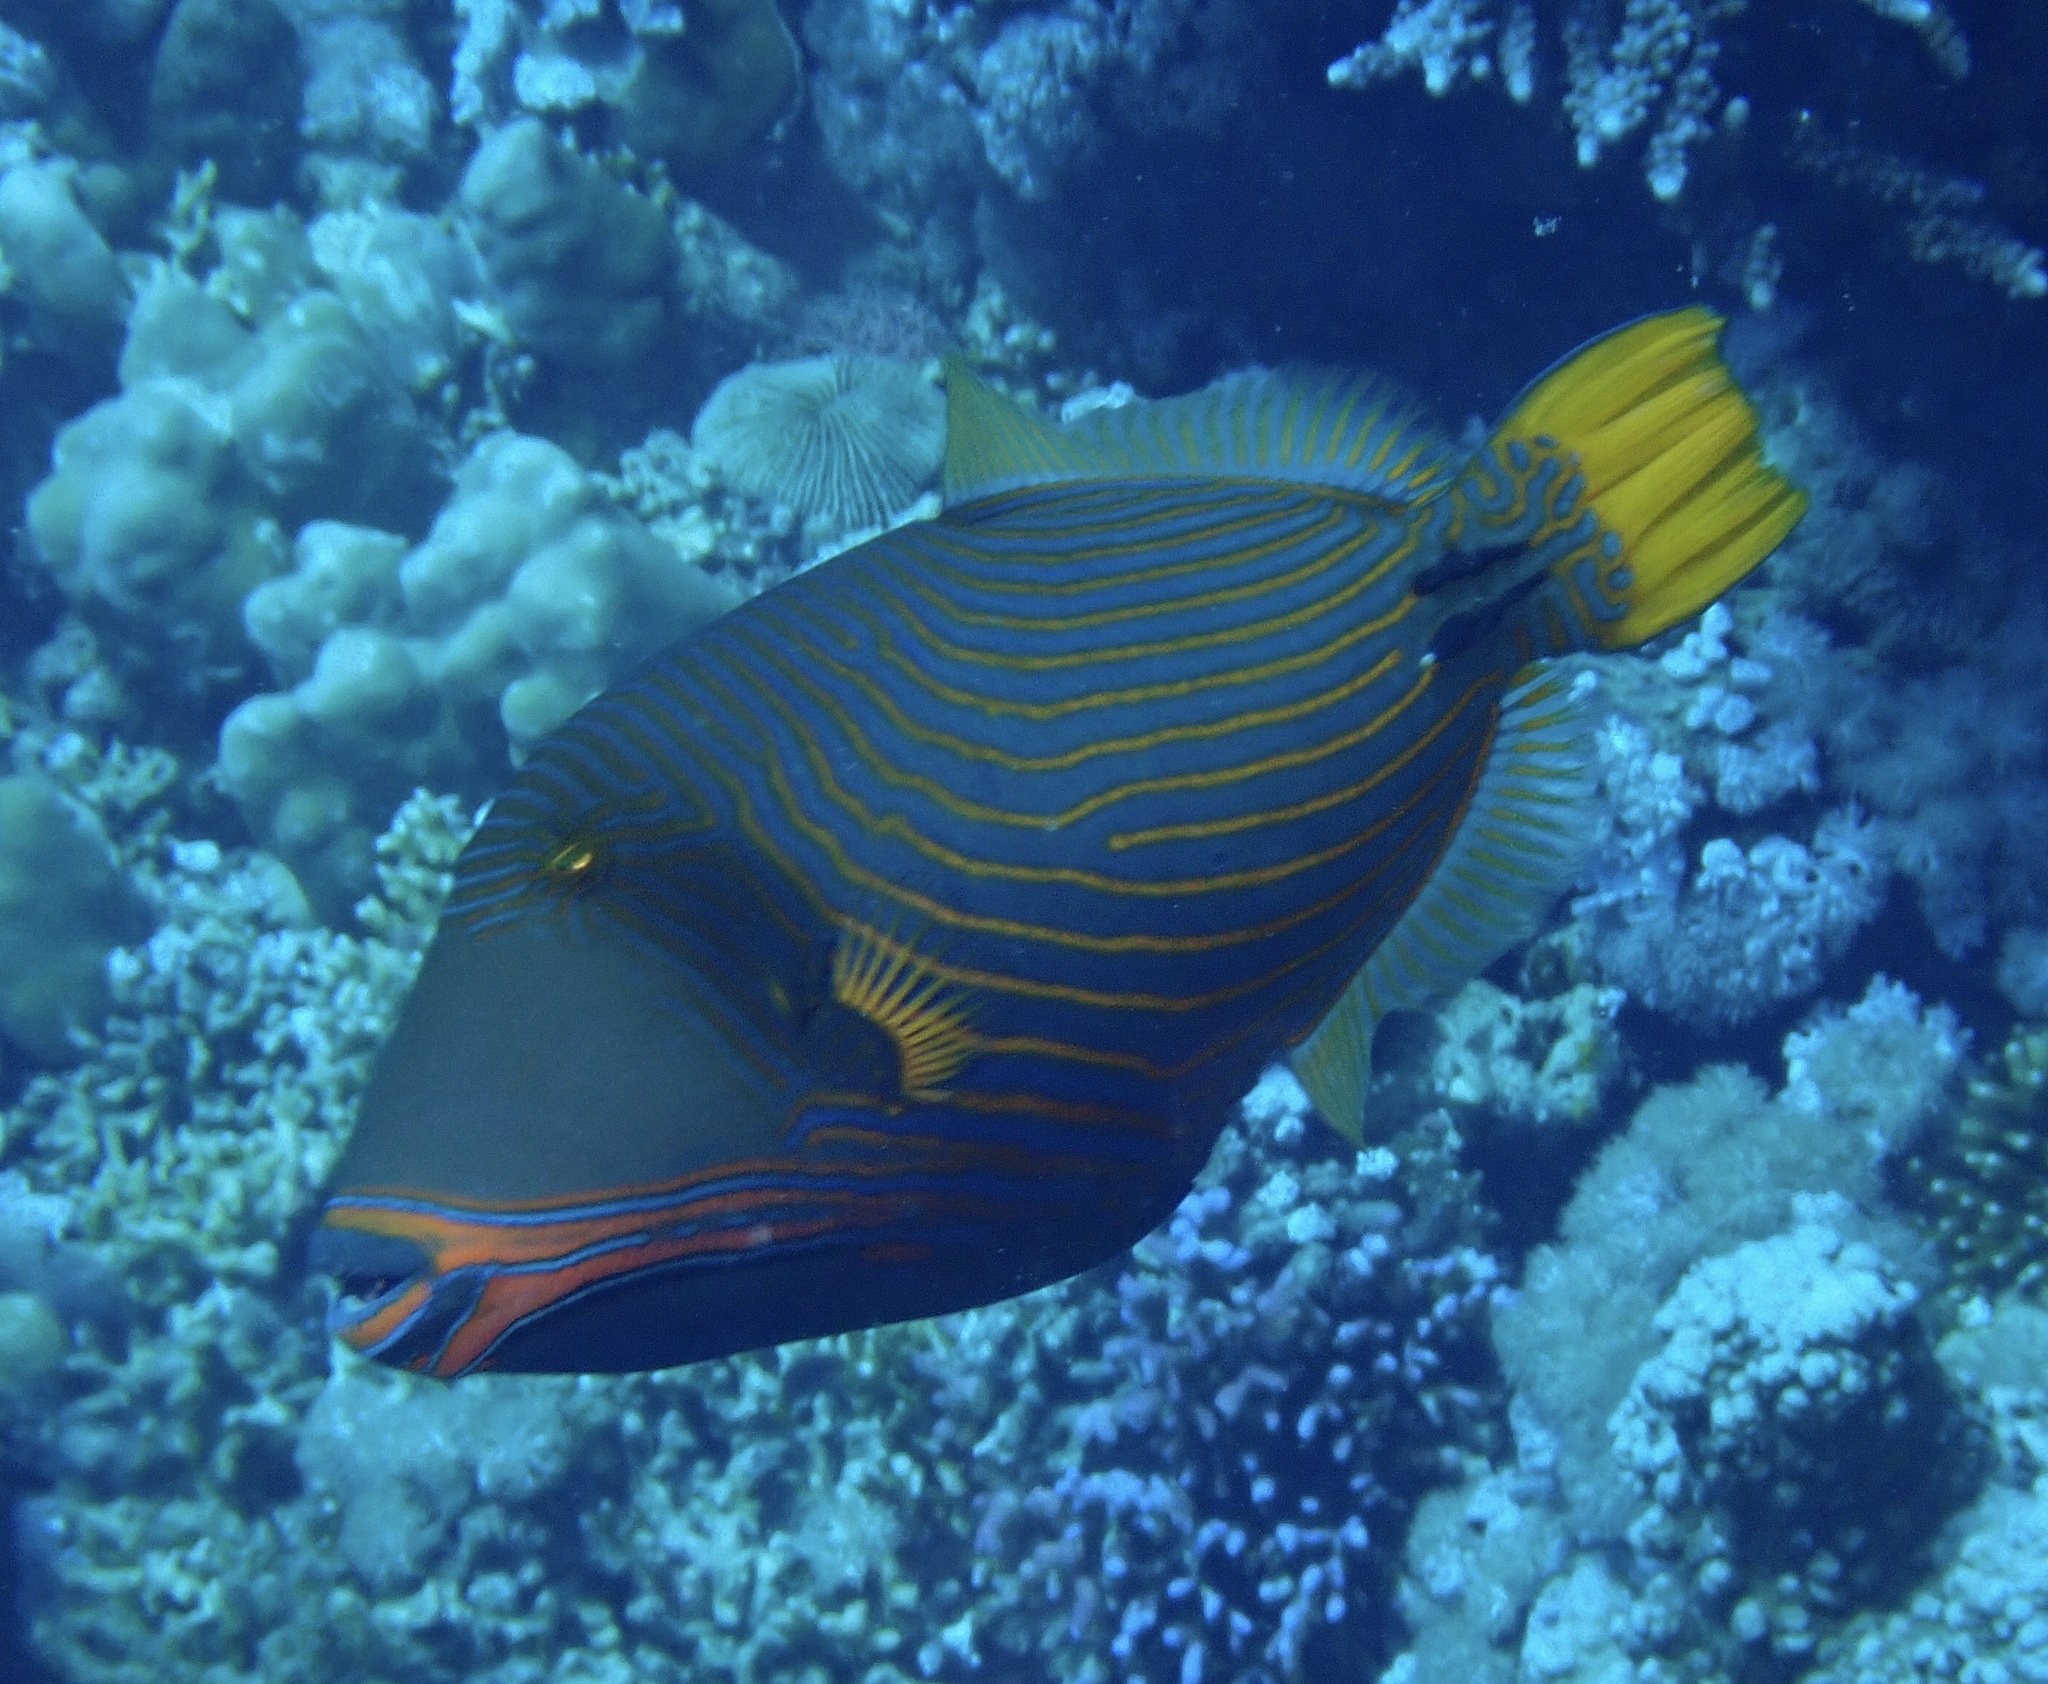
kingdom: Animalia
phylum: Chordata
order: Tetraodontiformes
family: Balistidae
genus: Balistapus
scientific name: Balistapus undulatus
